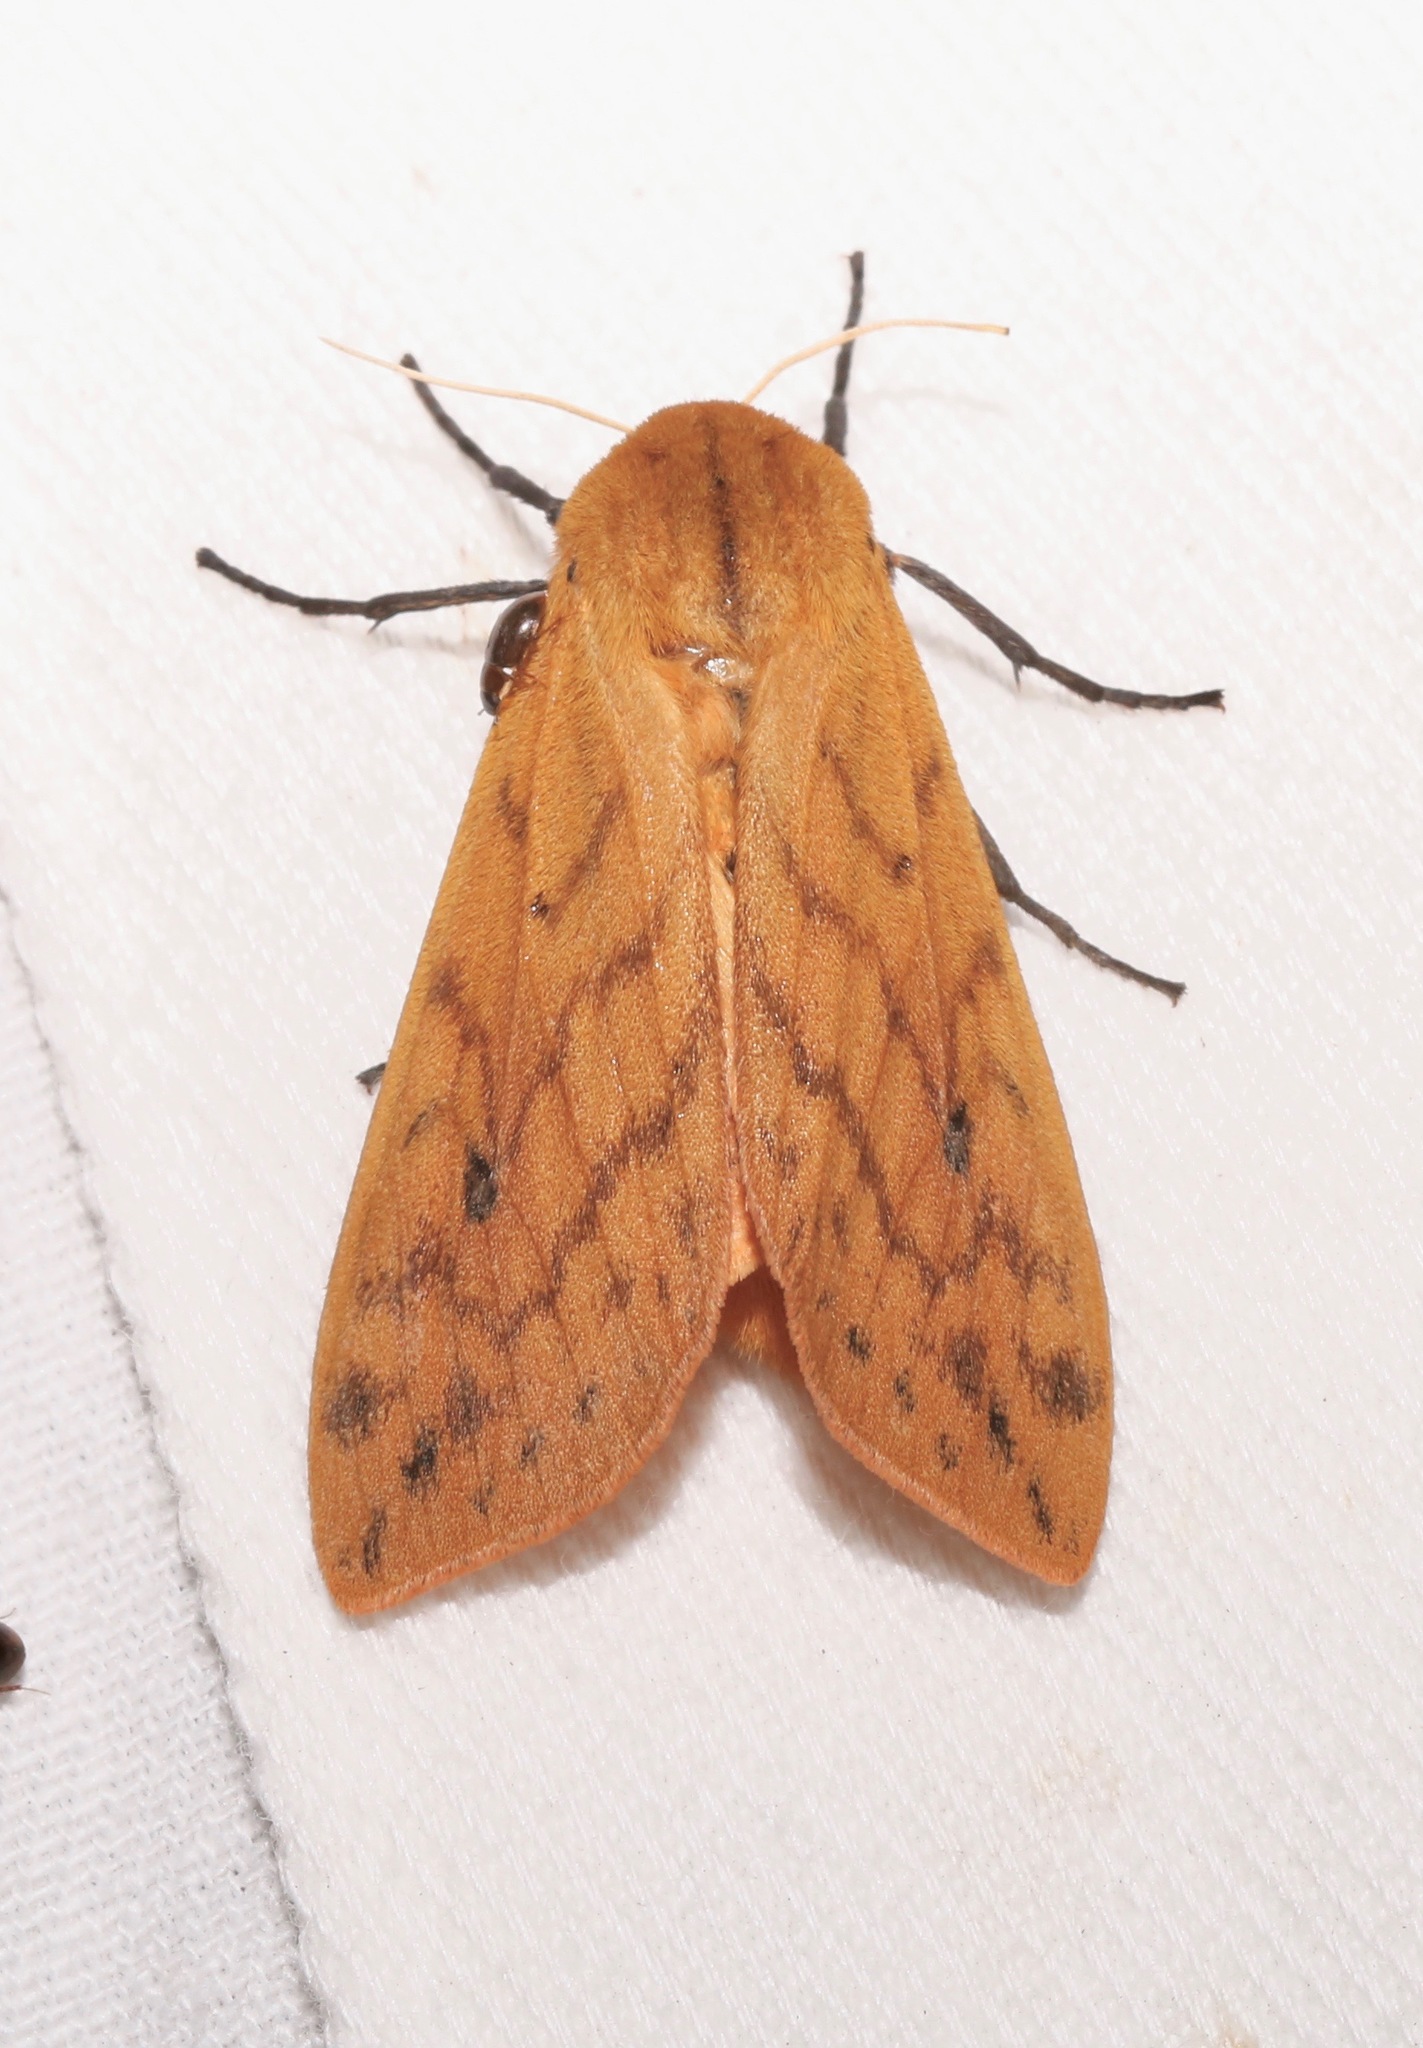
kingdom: Animalia
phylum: Arthropoda
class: Insecta
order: Lepidoptera
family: Erebidae
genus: Pyrrharctia
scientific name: Pyrrharctia isabella
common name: Isabella tiger moth
